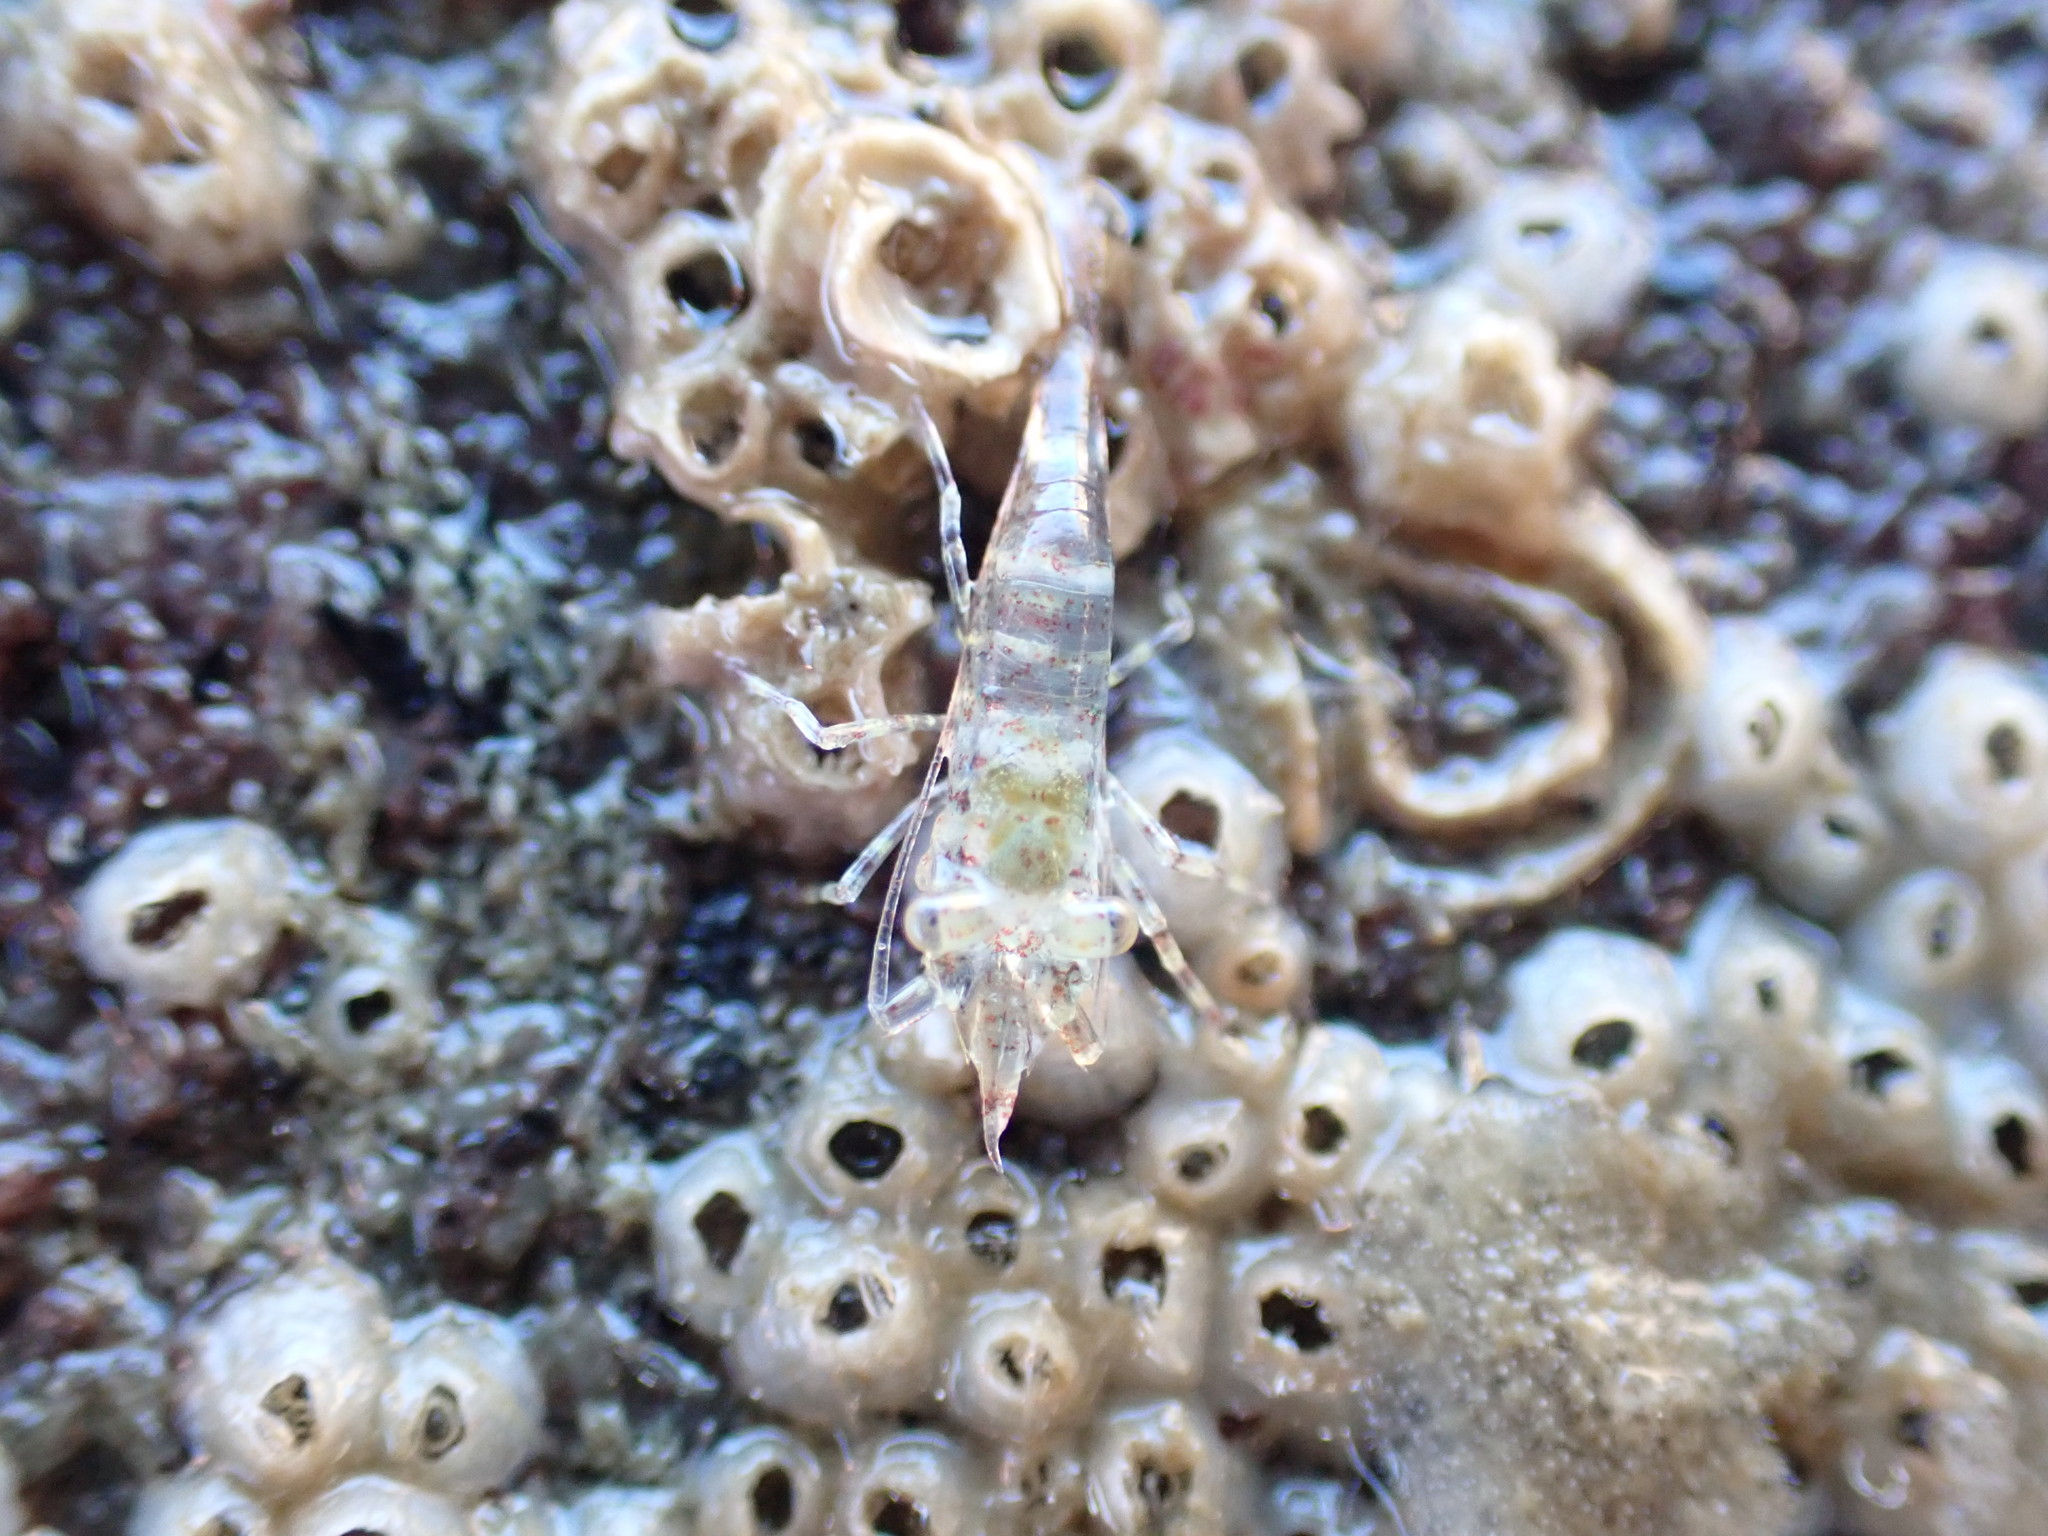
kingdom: Animalia
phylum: Arthropoda
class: Malacostraca
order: Decapoda
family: Hippolytidae
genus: Alope
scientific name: Alope spinifrons
